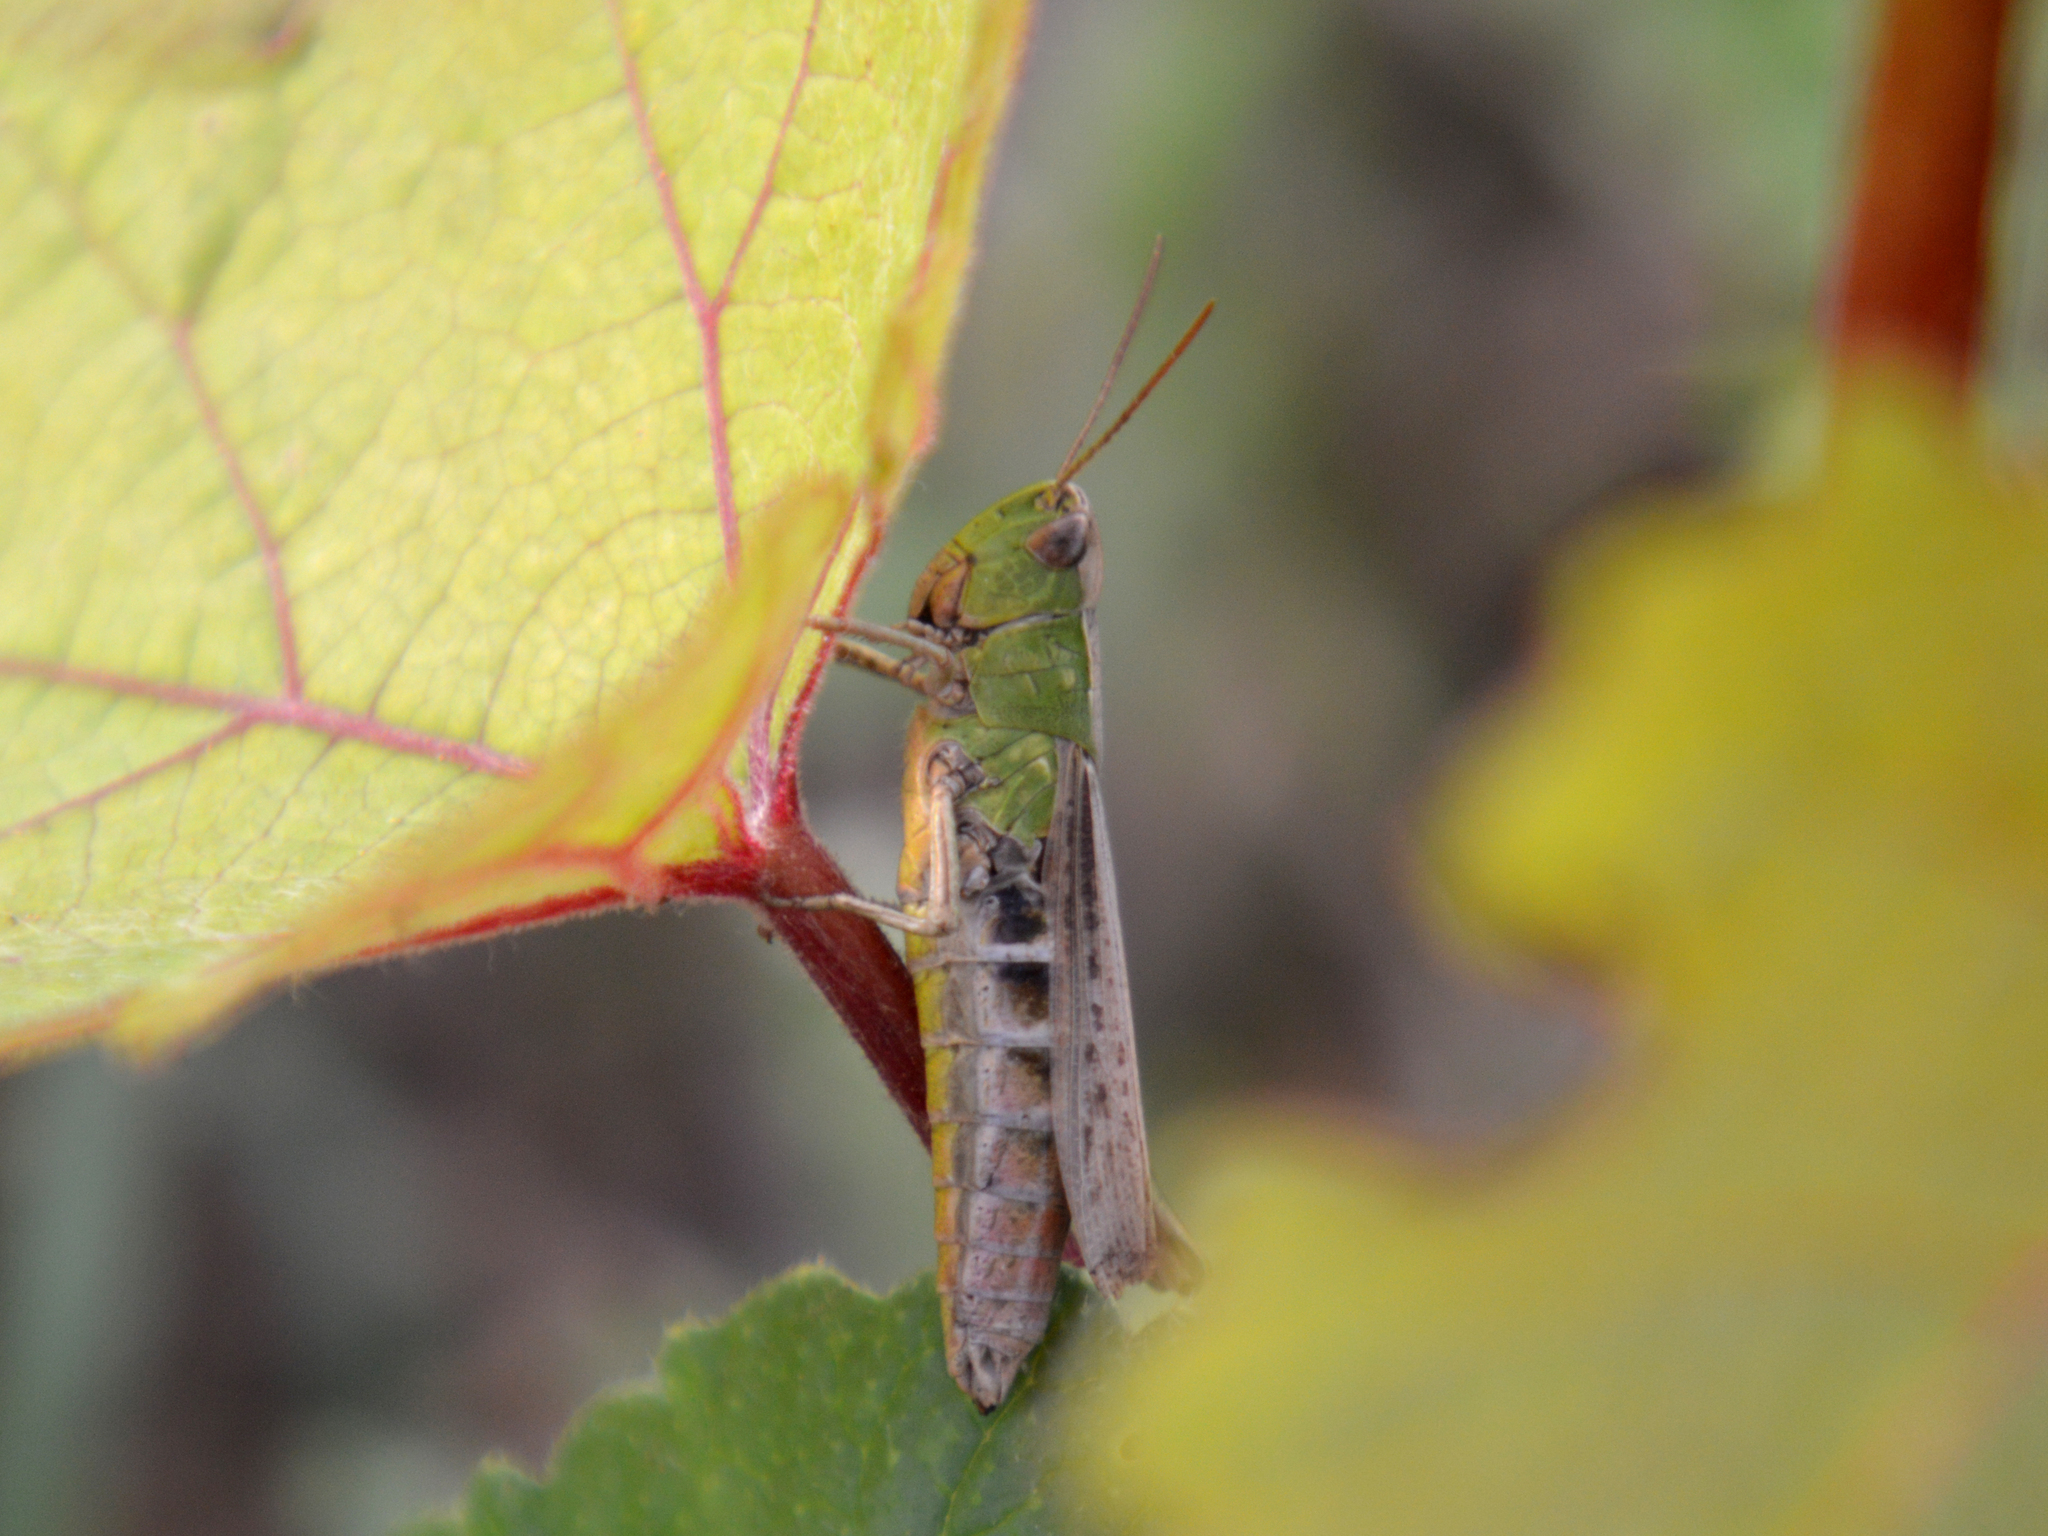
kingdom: Animalia
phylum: Arthropoda
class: Insecta
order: Orthoptera
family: Acrididae
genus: Chorthippus
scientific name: Chorthippus dorsatus
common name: Steppe grasshopper
